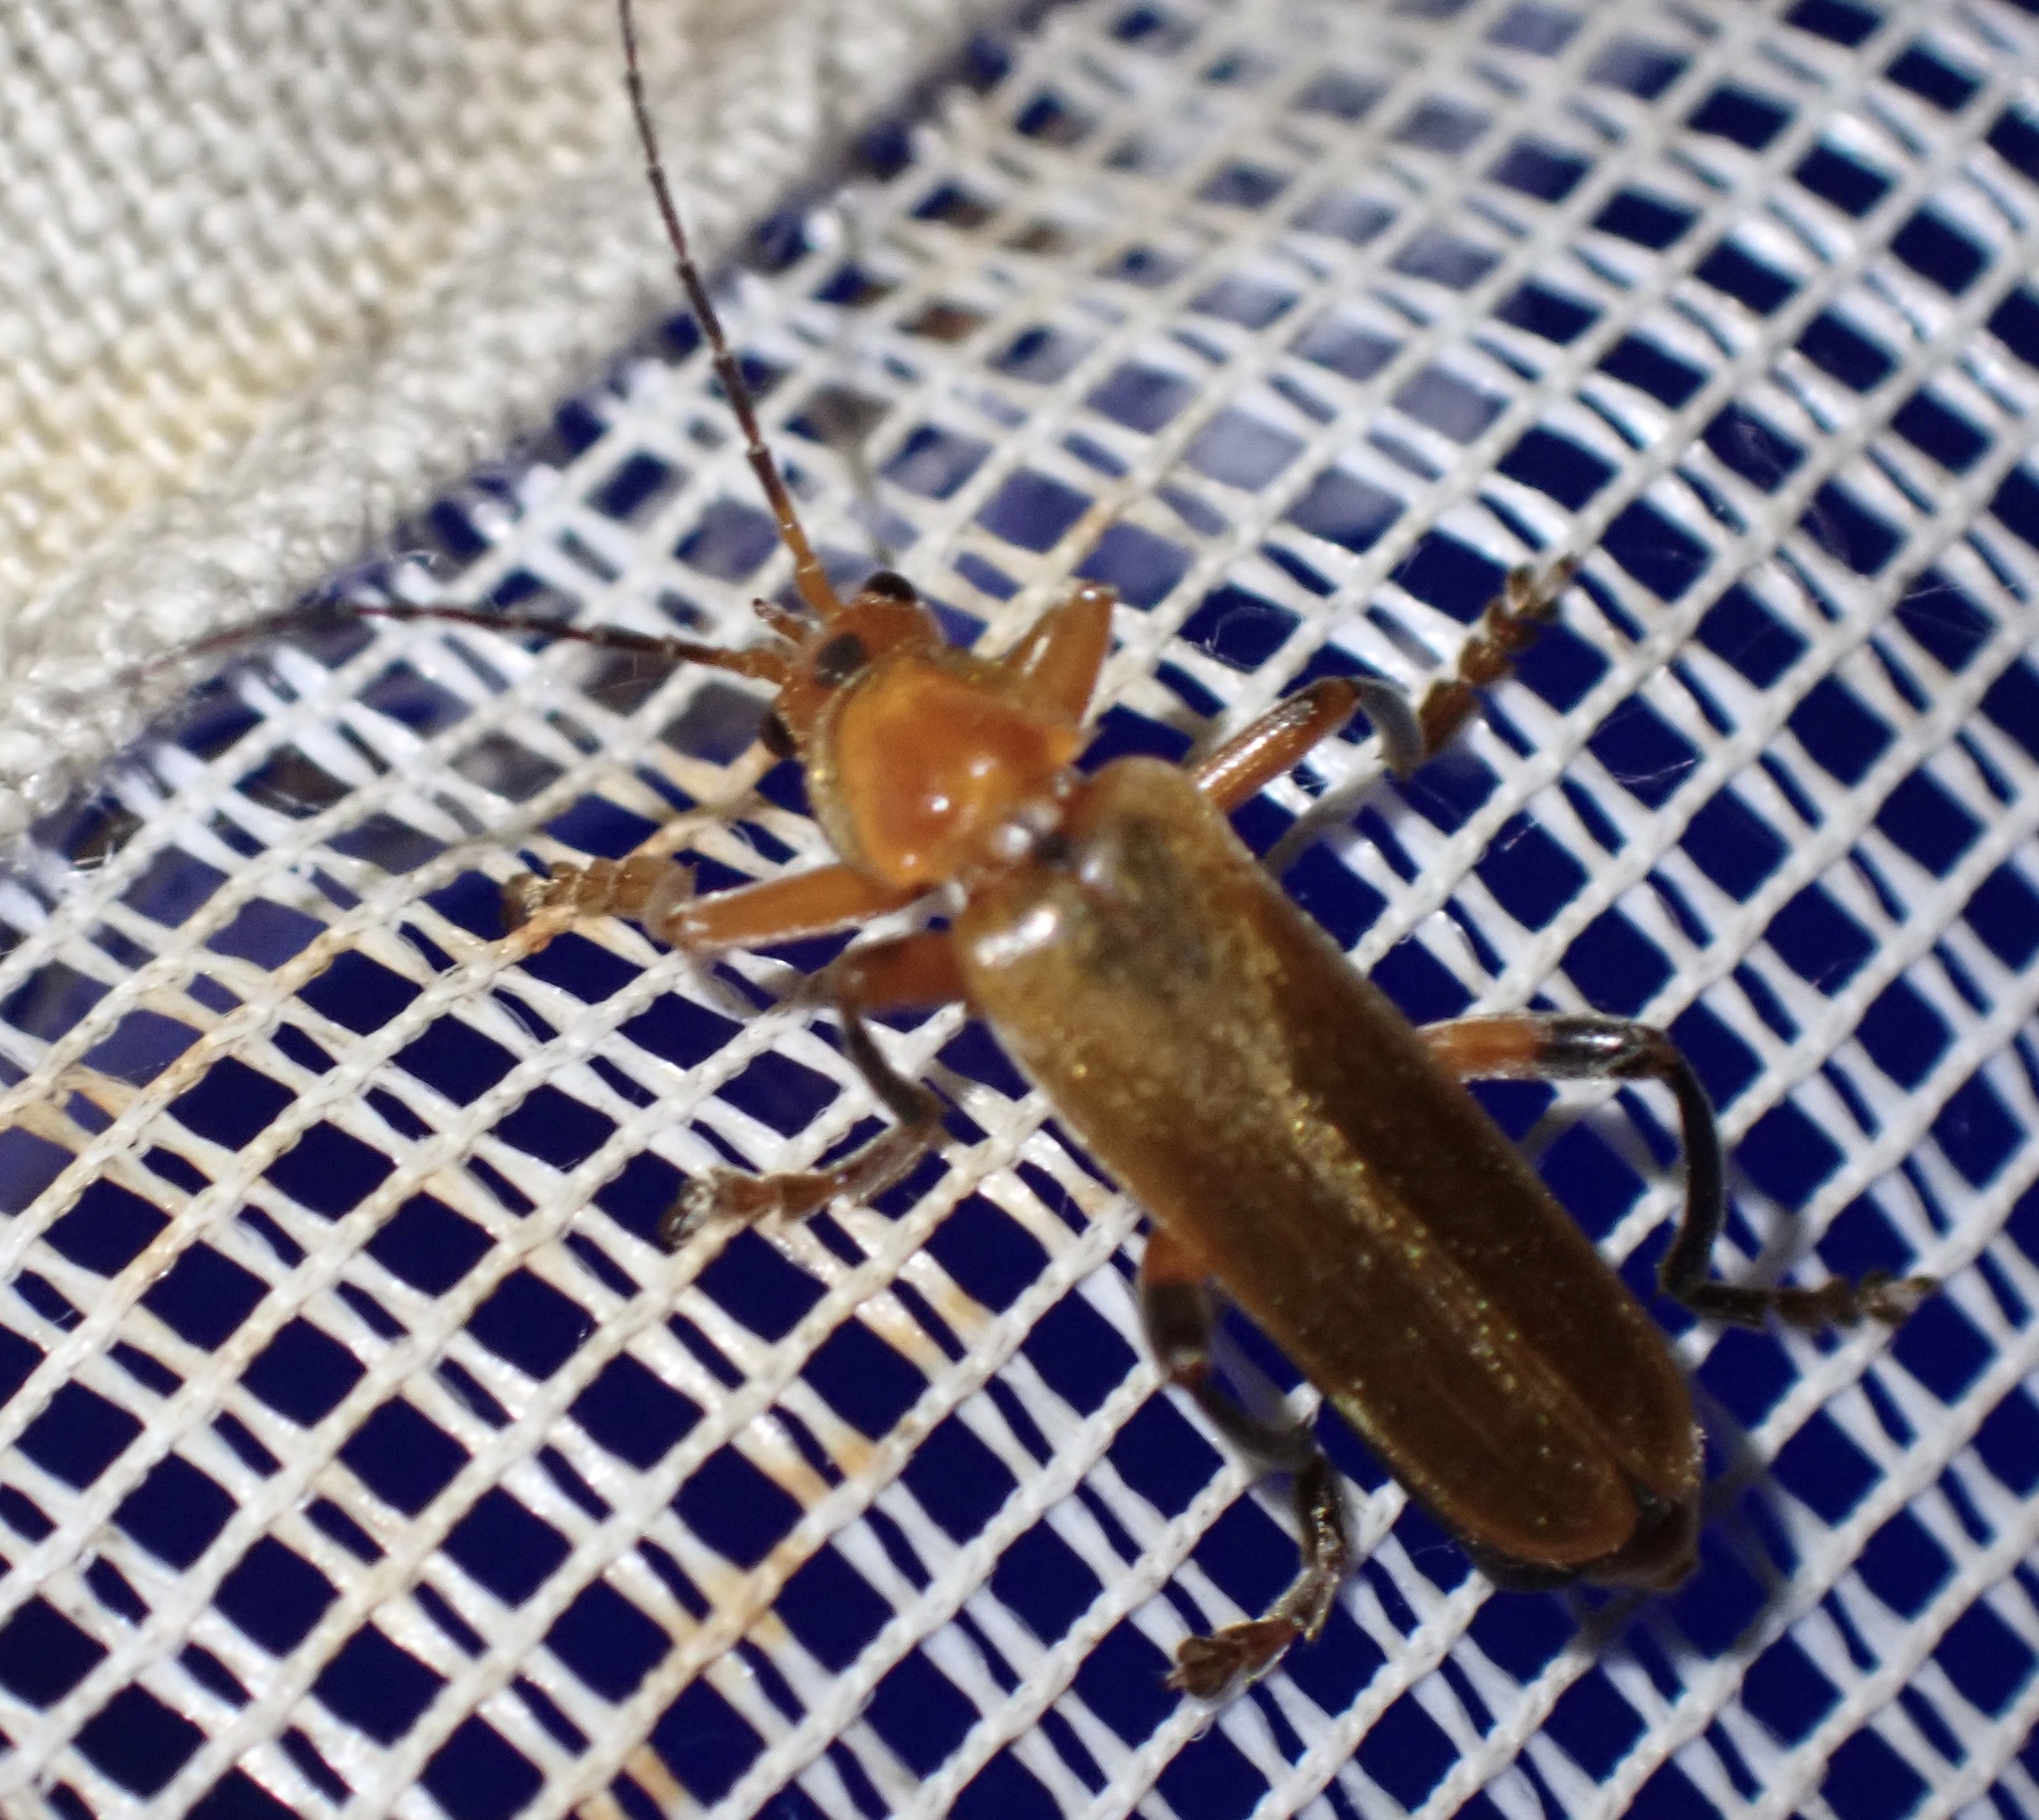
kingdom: Animalia
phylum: Arthropoda
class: Insecta
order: Coleoptera
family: Cantharidae
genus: Cantharis
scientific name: Cantharis livida
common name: Livid soldier beetle
